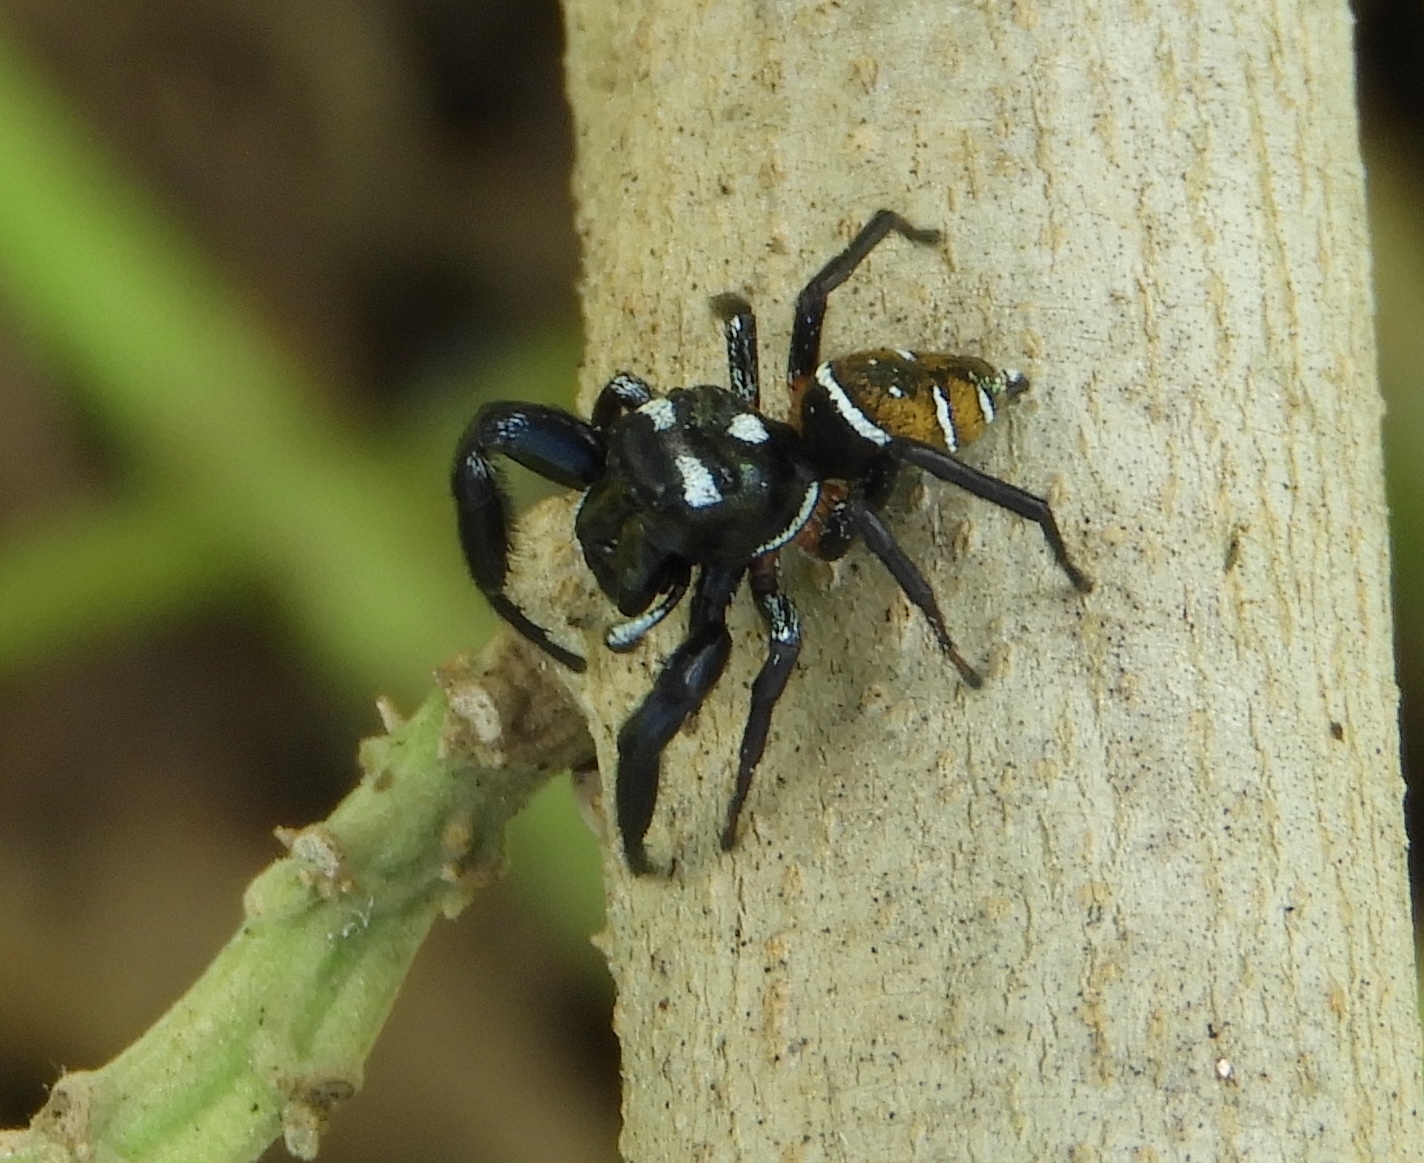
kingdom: Animalia
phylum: Arthropoda
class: Arachnida
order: Araneae
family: Salticidae
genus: Sassacus
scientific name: Sassacus
